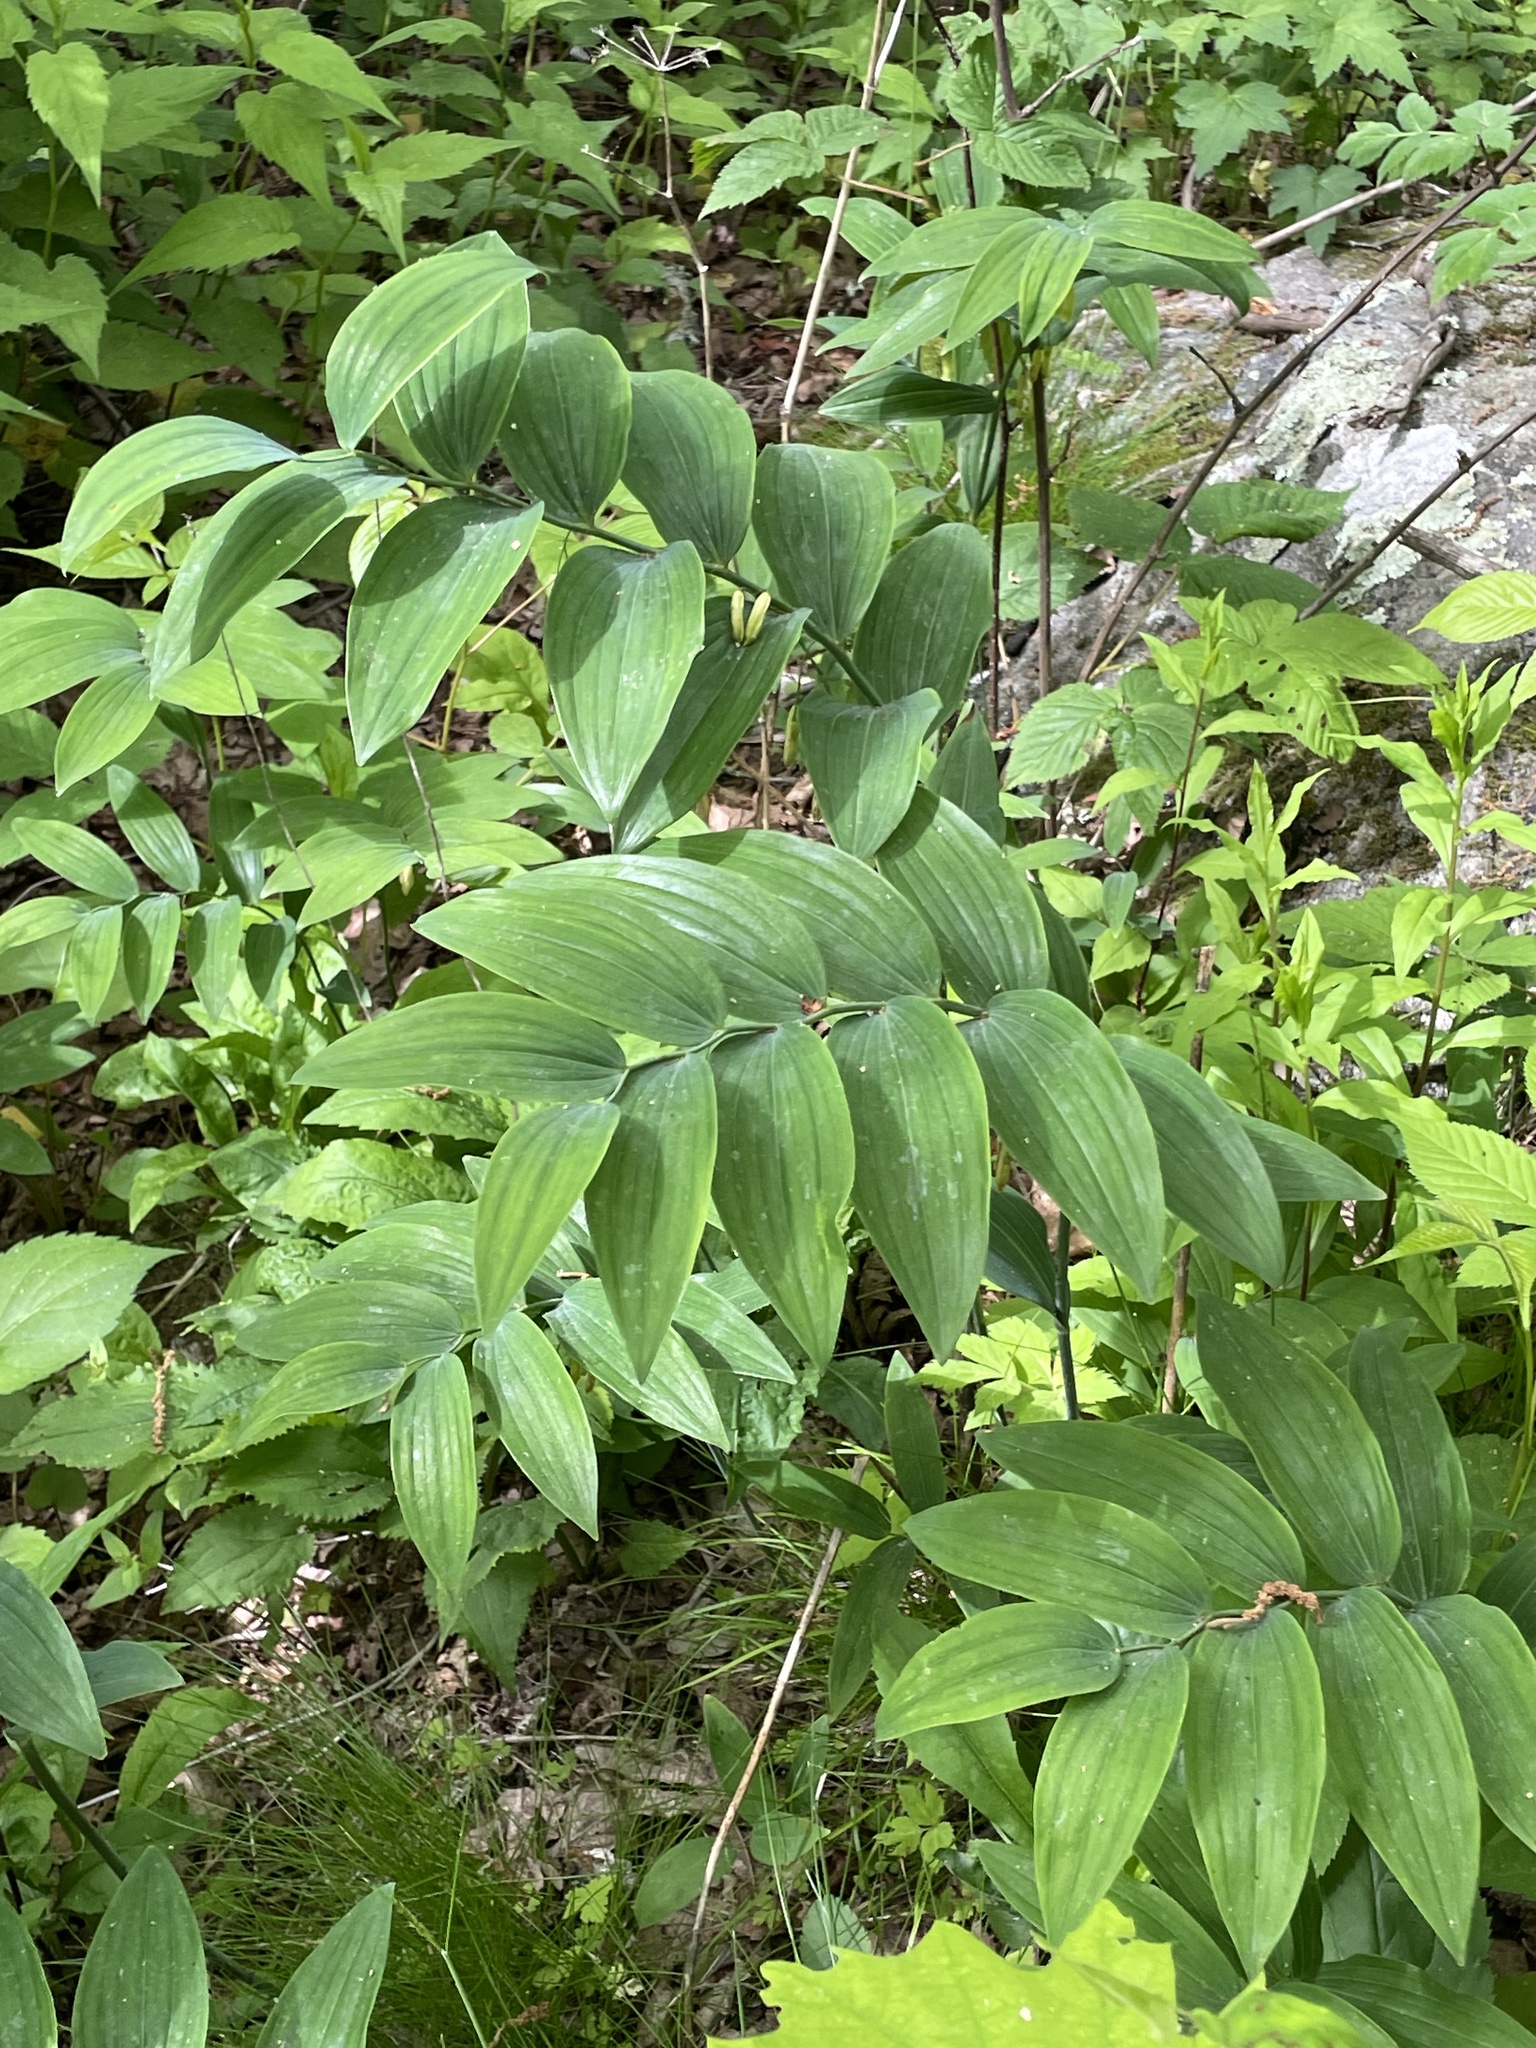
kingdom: Plantae
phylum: Tracheophyta
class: Liliopsida
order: Asparagales
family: Asparagaceae
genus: Polygonatum
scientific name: Polygonatum biflorum
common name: American solomon's-seal
